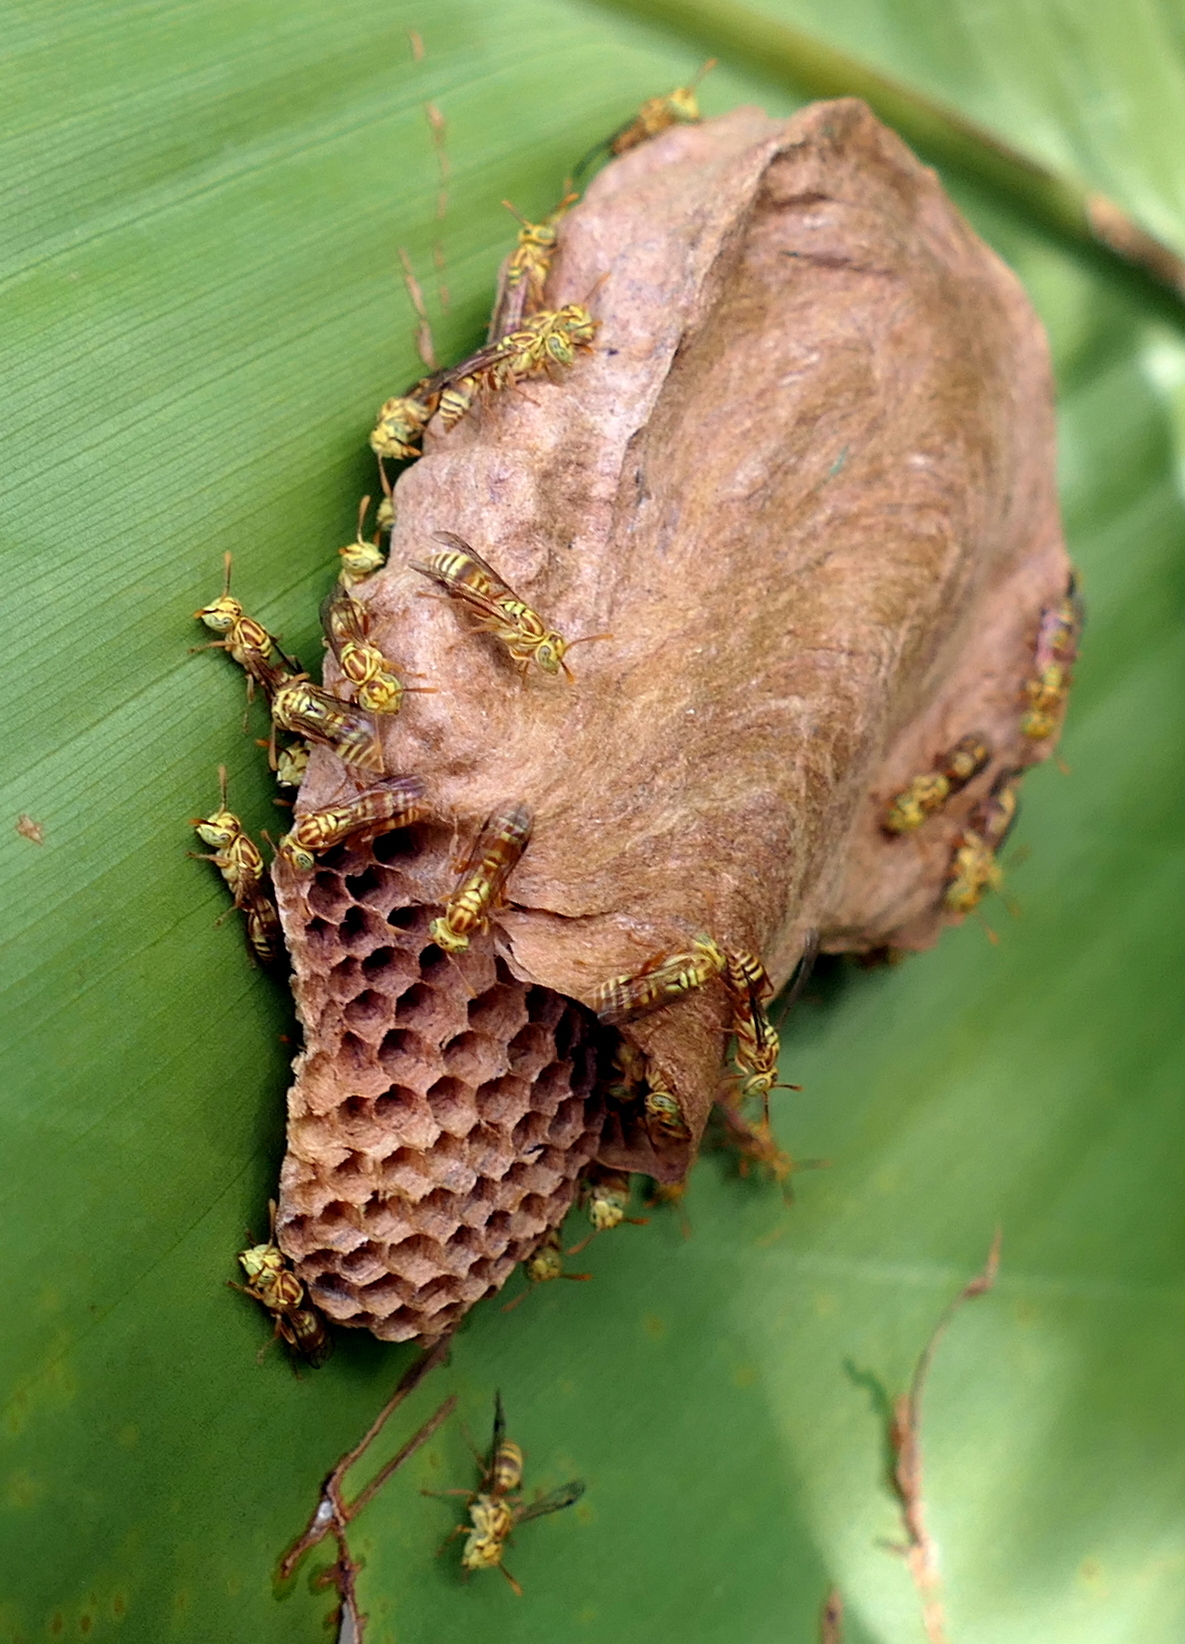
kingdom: Animalia
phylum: Arthropoda
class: Insecta
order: Hymenoptera
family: Vespidae
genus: Protopolybia
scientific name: Protopolybia potiguara
